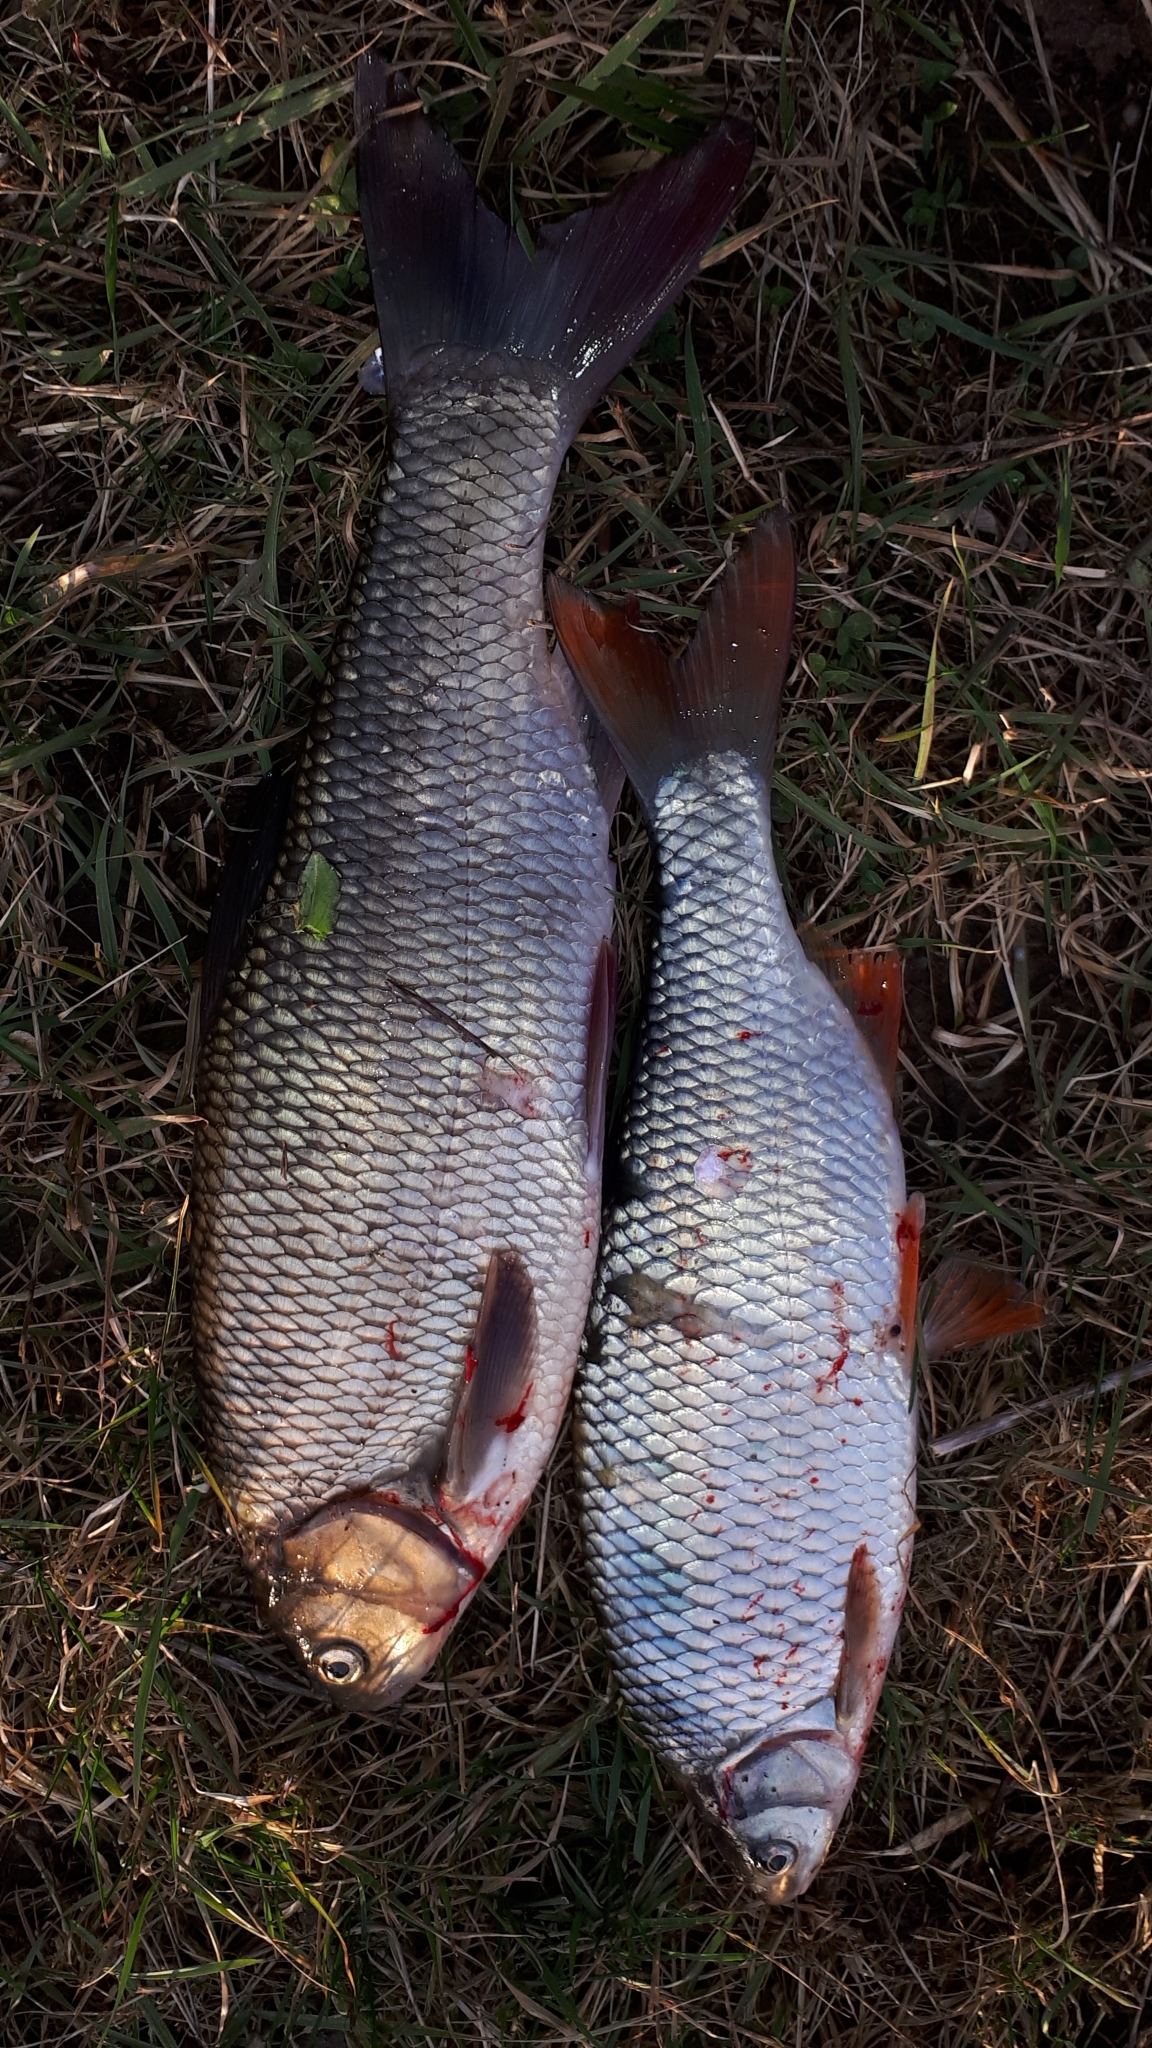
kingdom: Animalia
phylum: Chordata
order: Cypriniformes
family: Cyprinidae
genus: Leuciscus
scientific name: Leuciscus idus
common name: Ide
